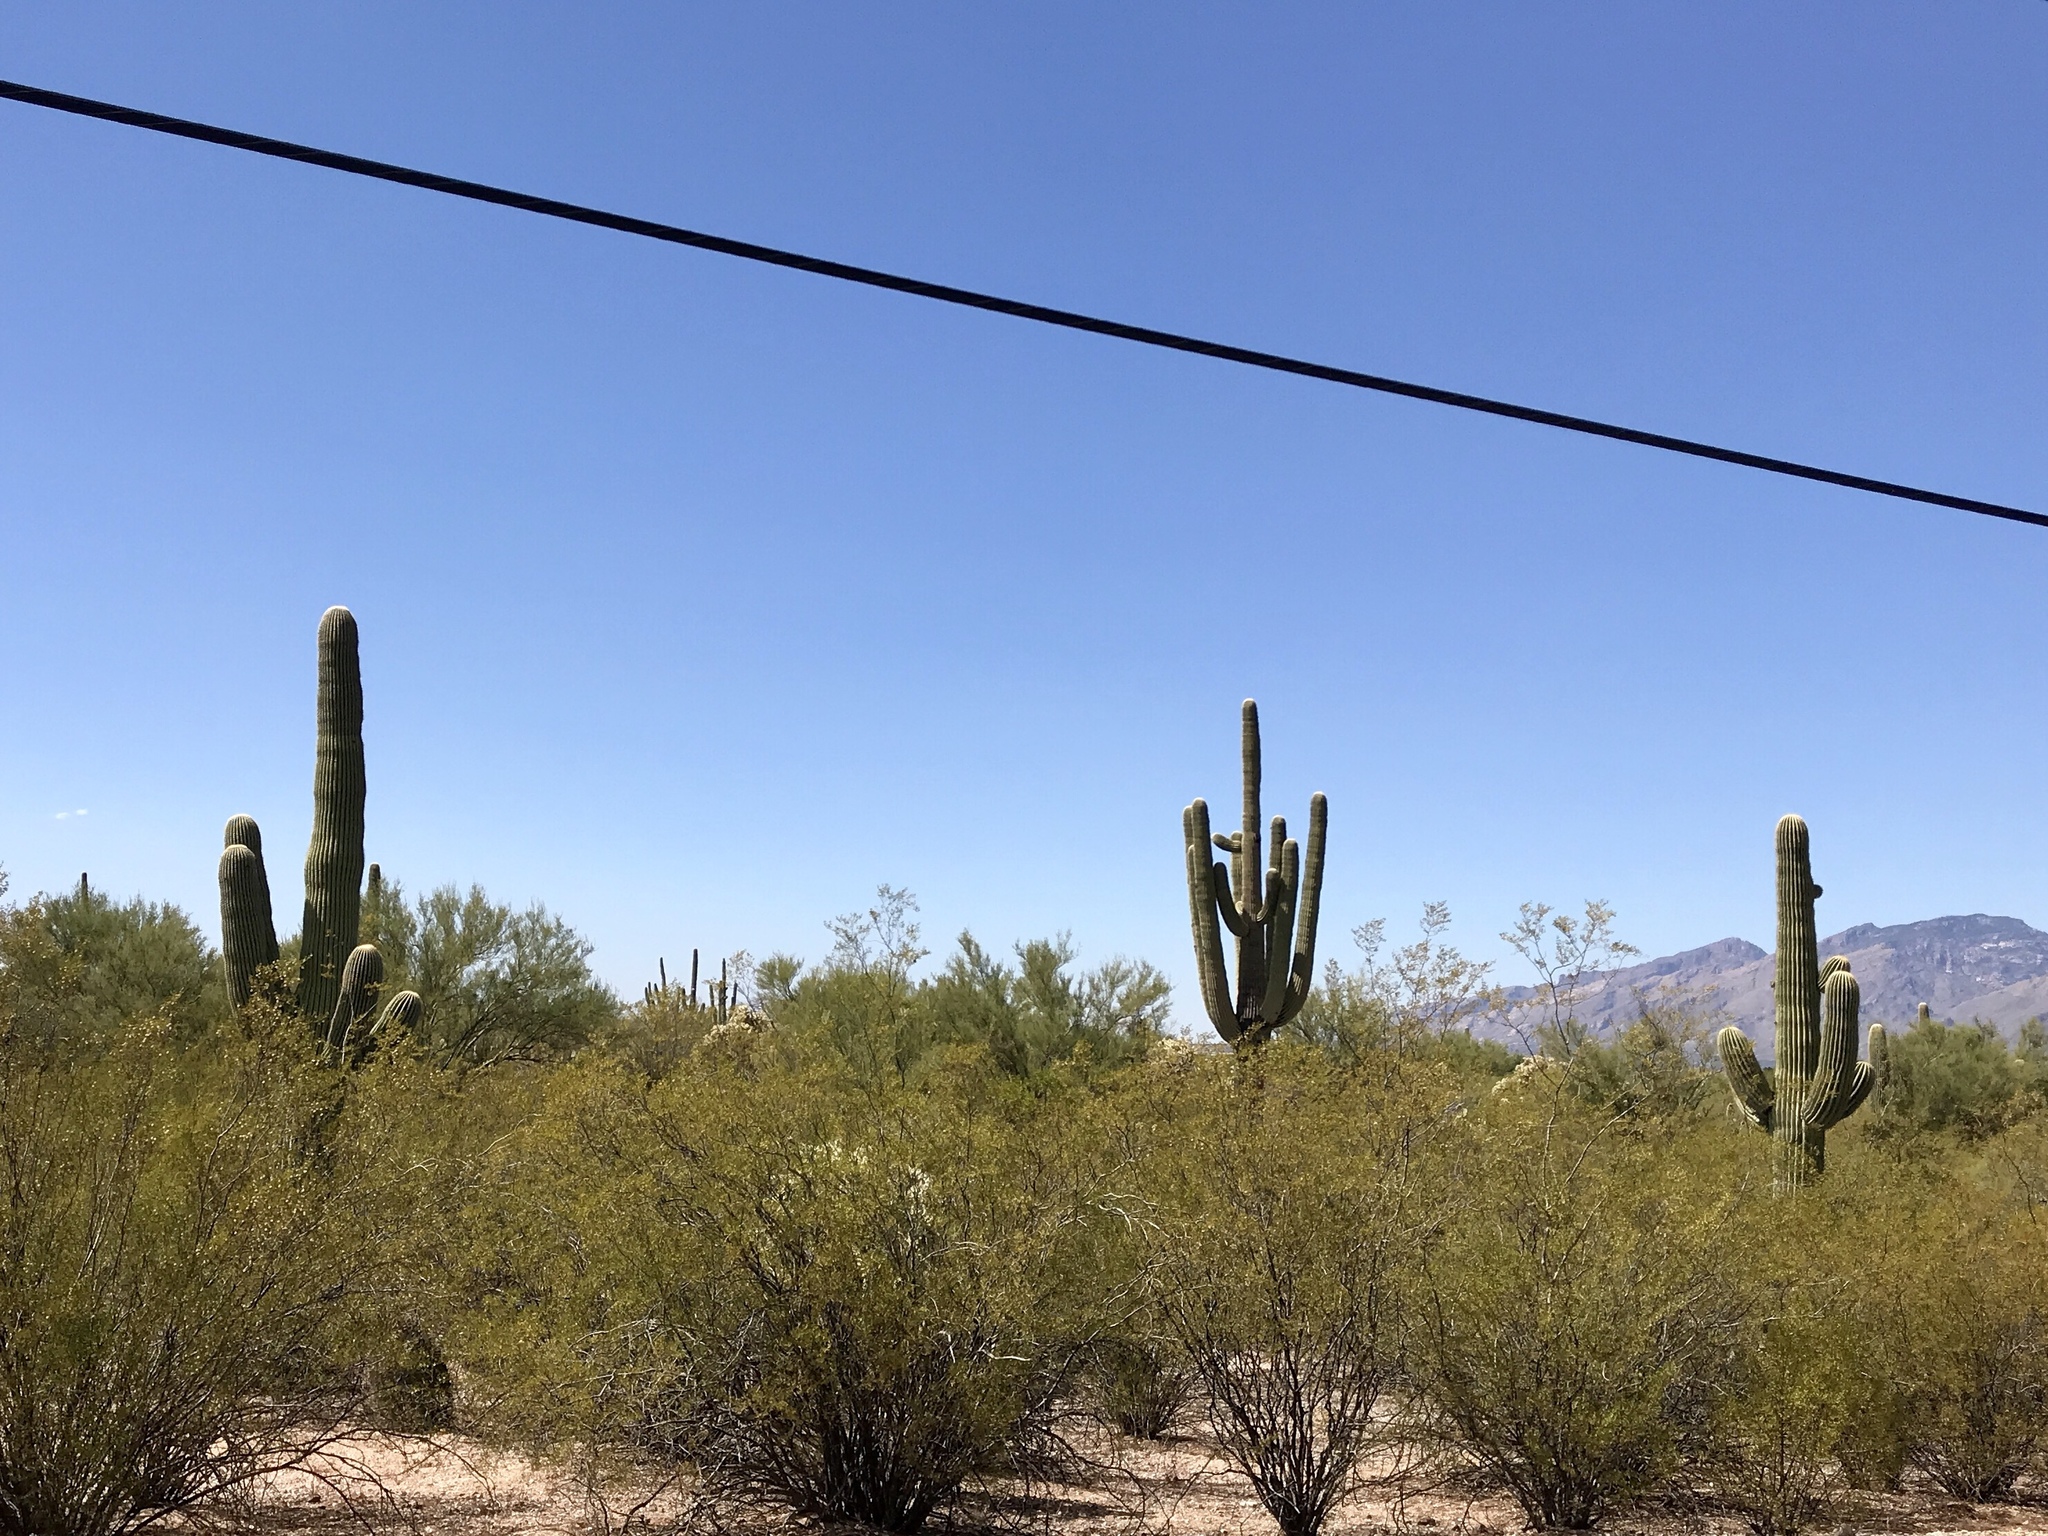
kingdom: Plantae
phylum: Tracheophyta
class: Magnoliopsida
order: Caryophyllales
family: Cactaceae
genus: Carnegiea
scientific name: Carnegiea gigantea
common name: Saguaro
